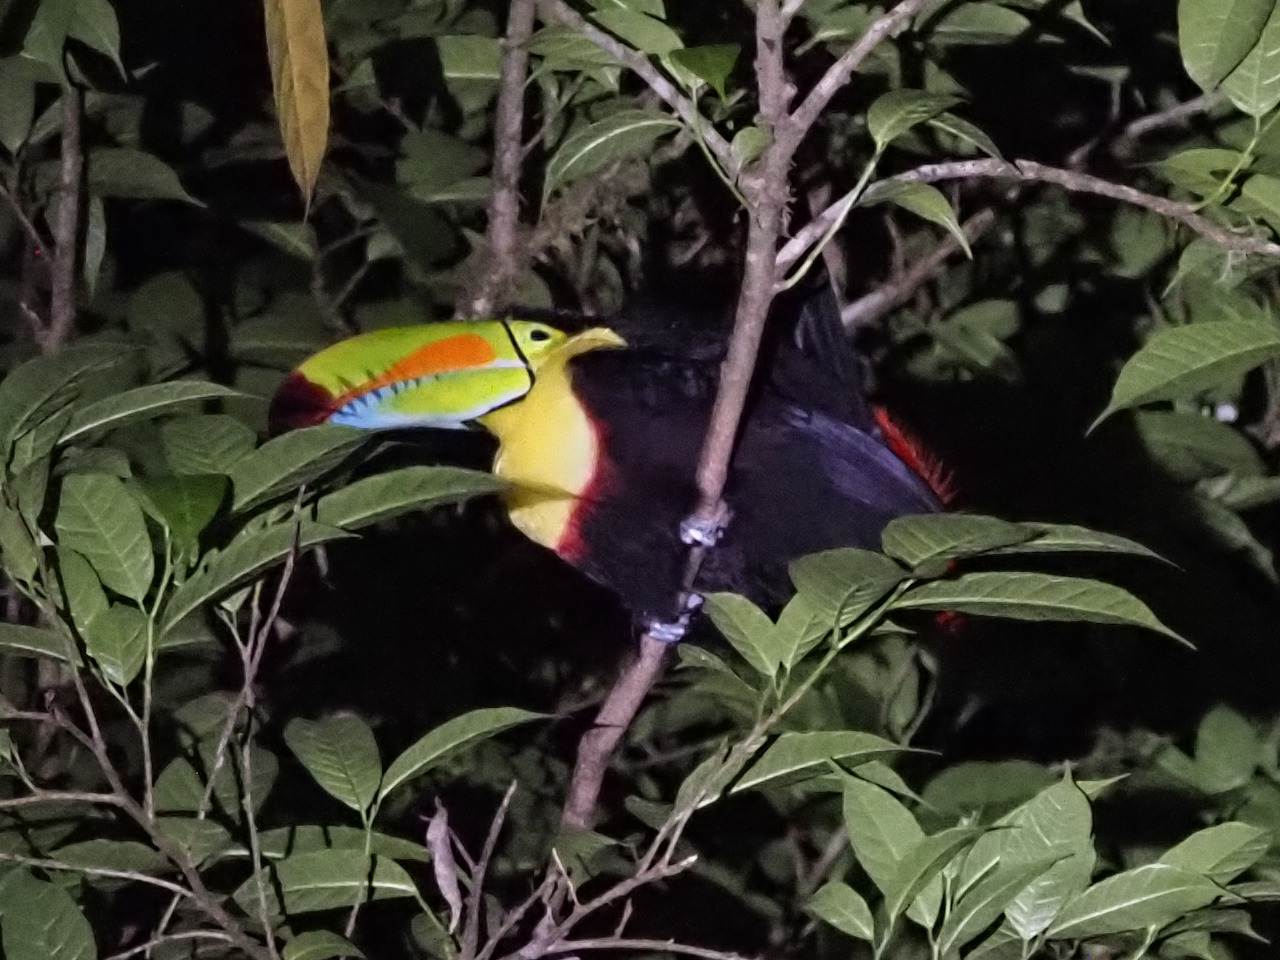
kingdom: Animalia
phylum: Chordata
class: Aves
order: Piciformes
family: Ramphastidae
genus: Ramphastos
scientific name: Ramphastos sulfuratus
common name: Keel-billed toucan
